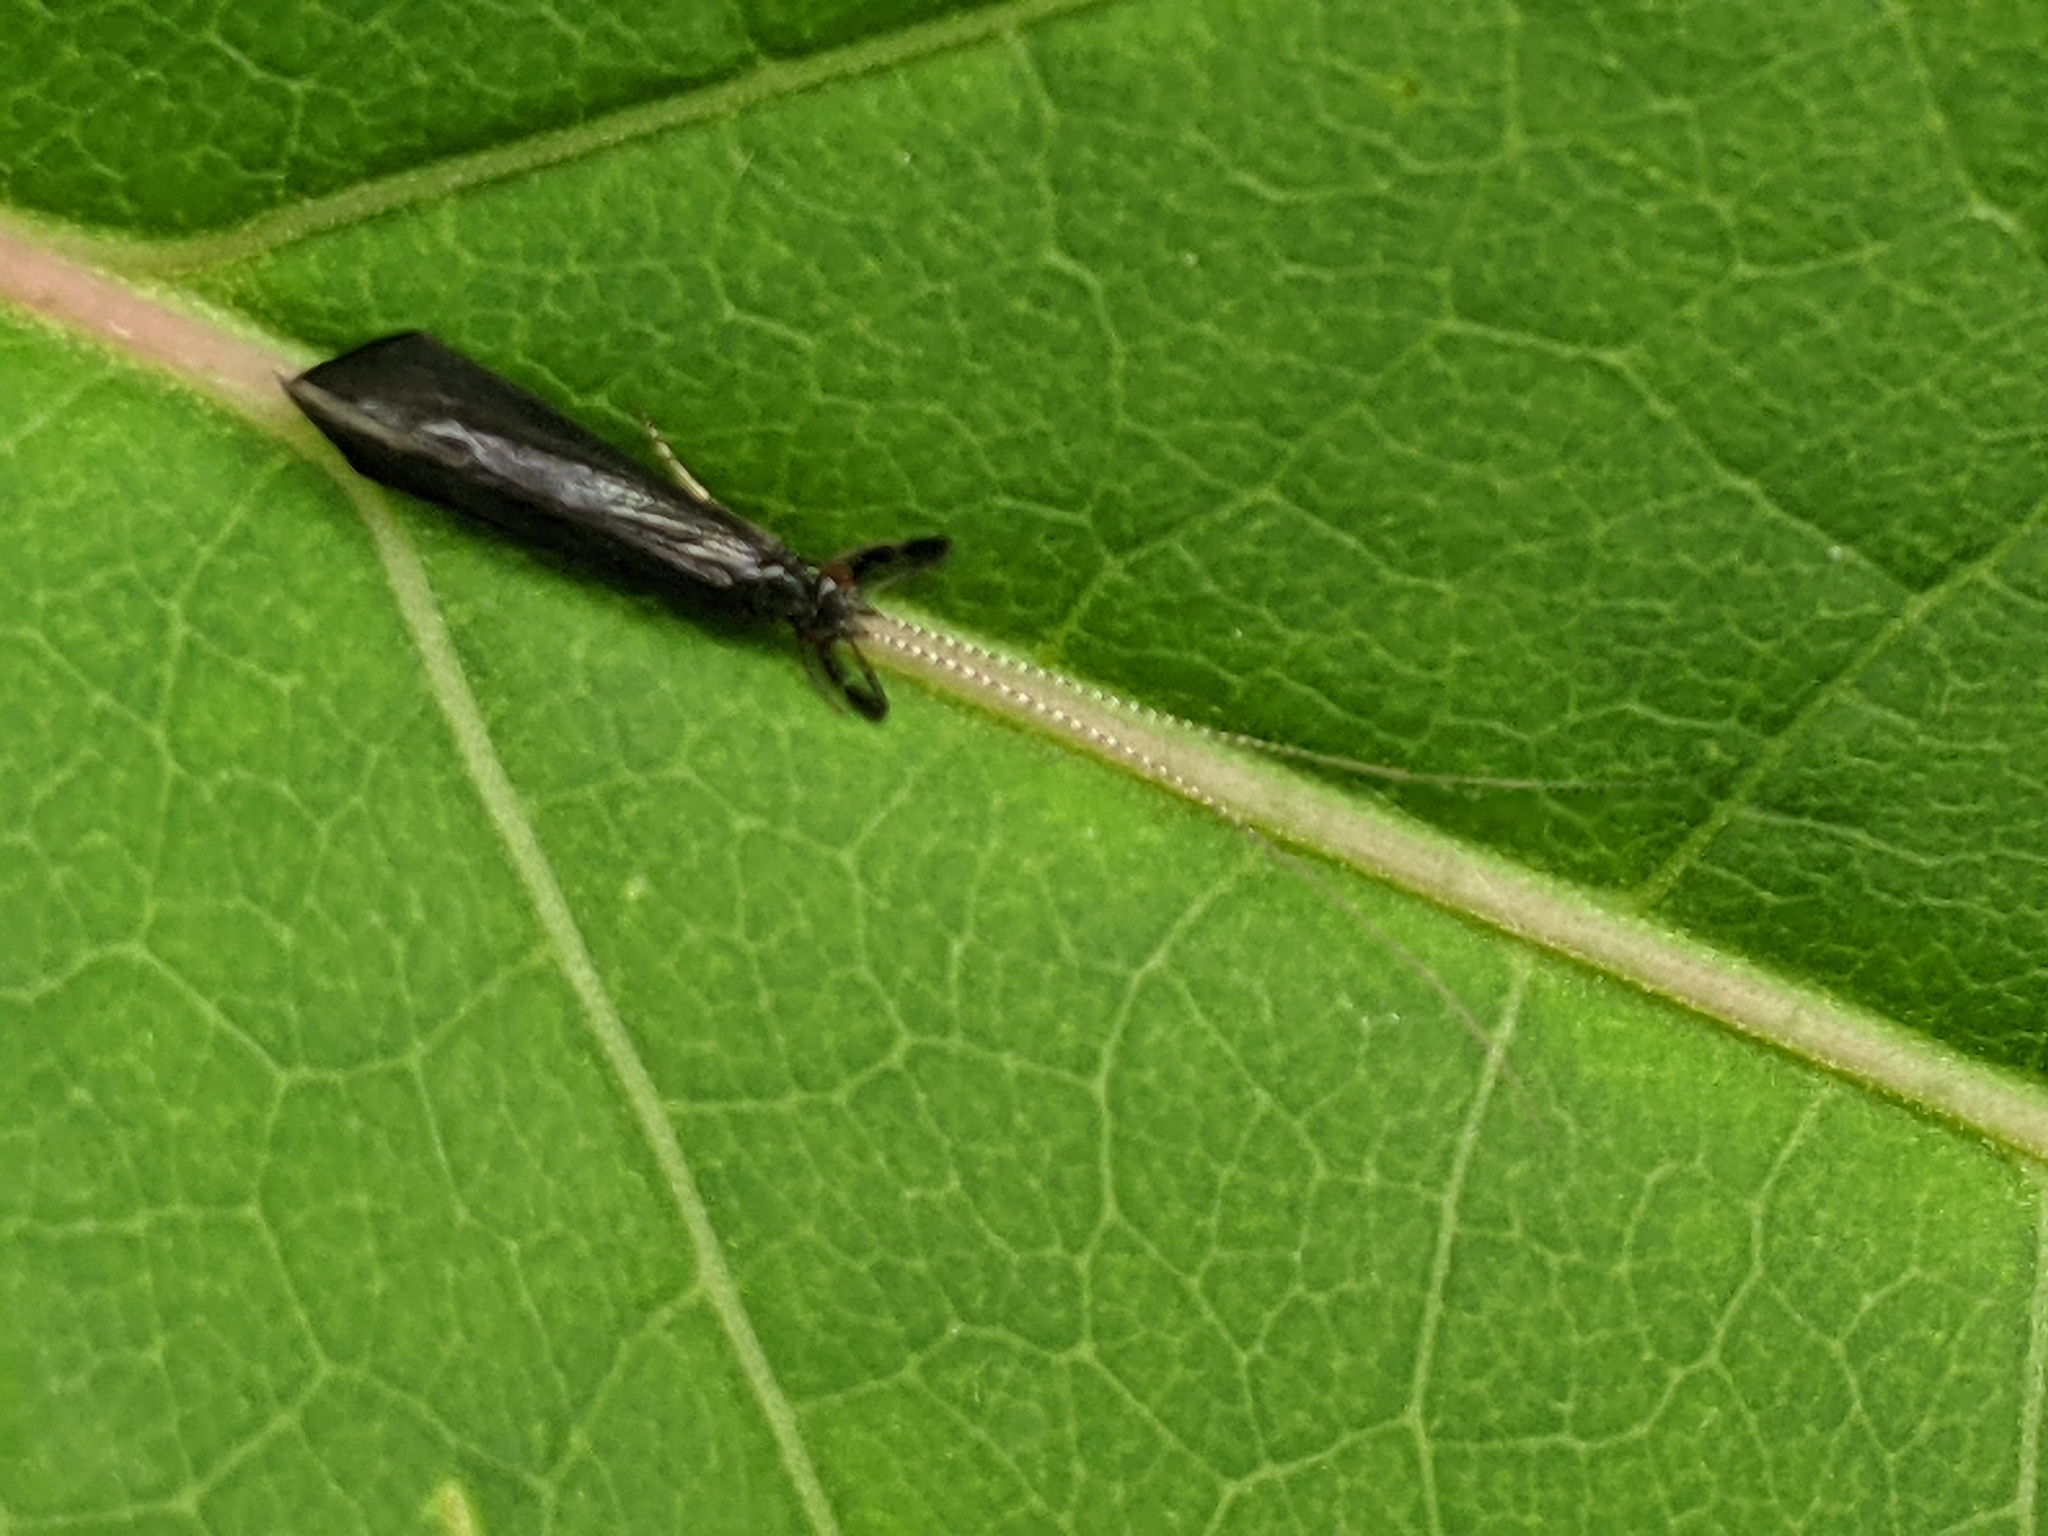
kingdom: Animalia
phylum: Arthropoda
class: Insecta
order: Trichoptera
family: Leptoceridae
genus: Mystacides
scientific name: Mystacides sepulchralis
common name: Black dancer caddisfly
